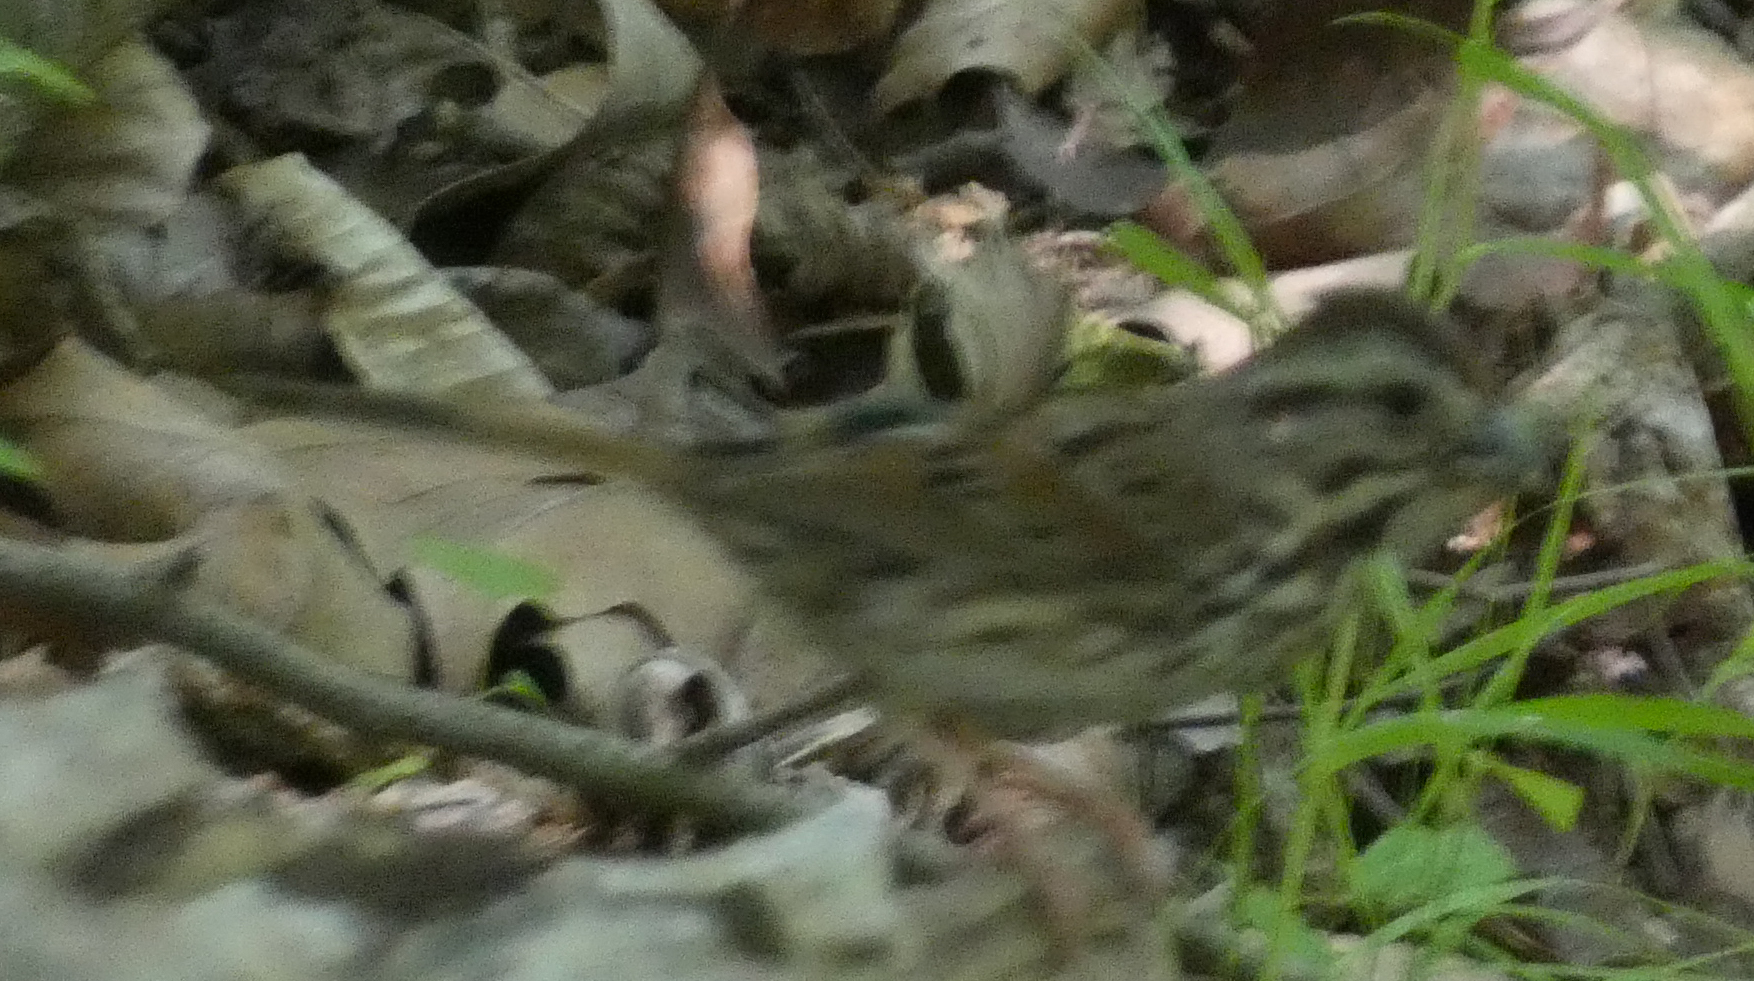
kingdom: Animalia
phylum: Chordata
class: Aves
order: Passeriformes
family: Passerellidae
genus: Melospiza
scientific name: Melospiza melodia
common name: Song sparrow
